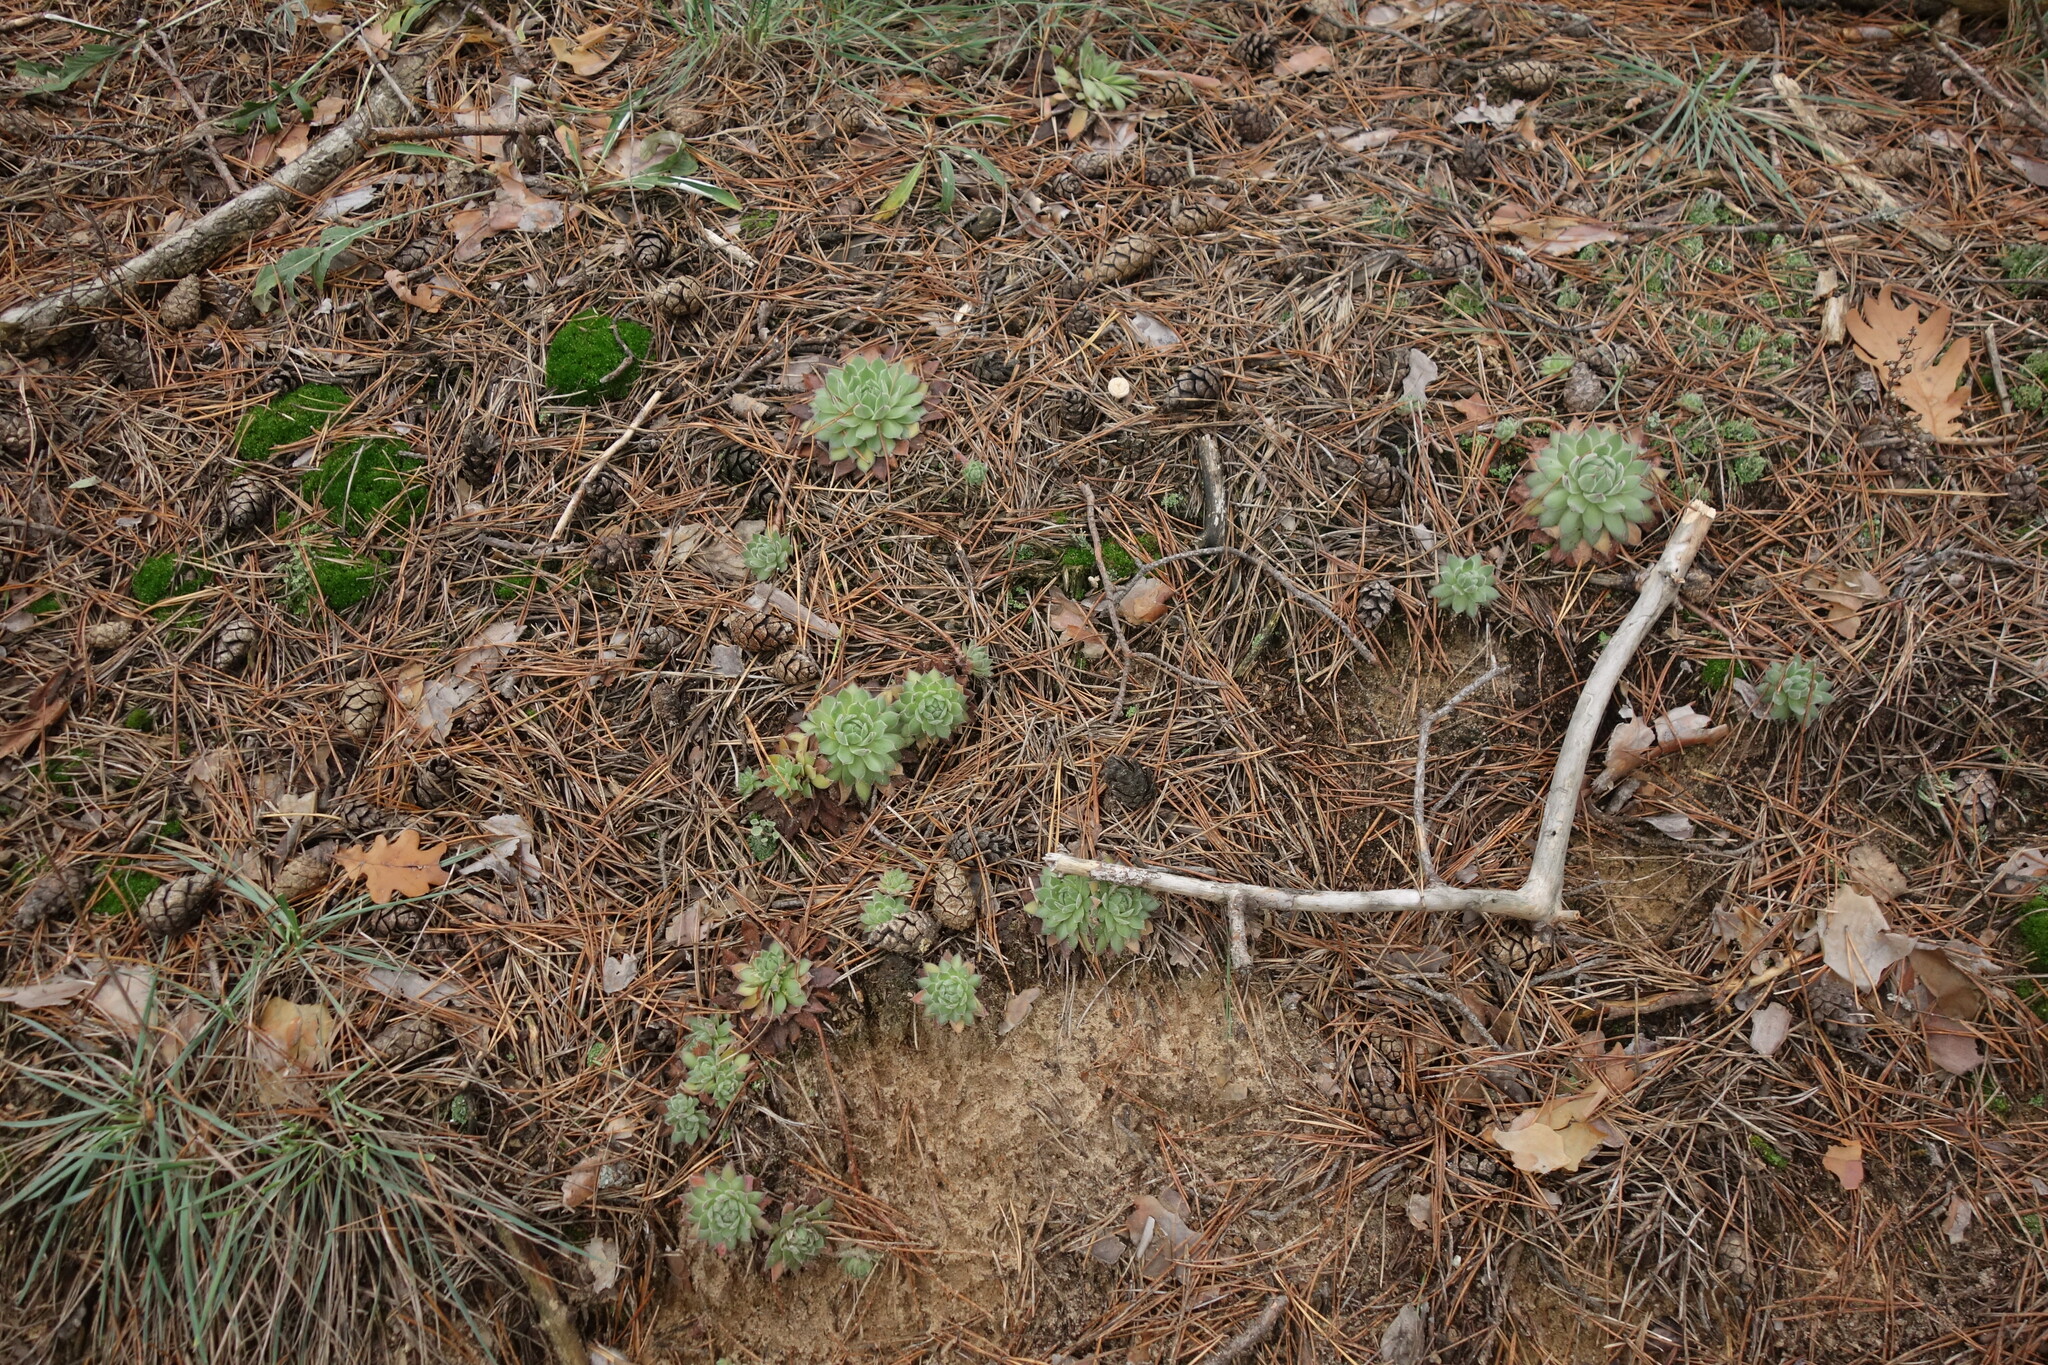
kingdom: Plantae
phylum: Tracheophyta
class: Magnoliopsida
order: Saxifragales
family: Crassulaceae
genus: Sempervivum
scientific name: Sempervivum ruthenicum
